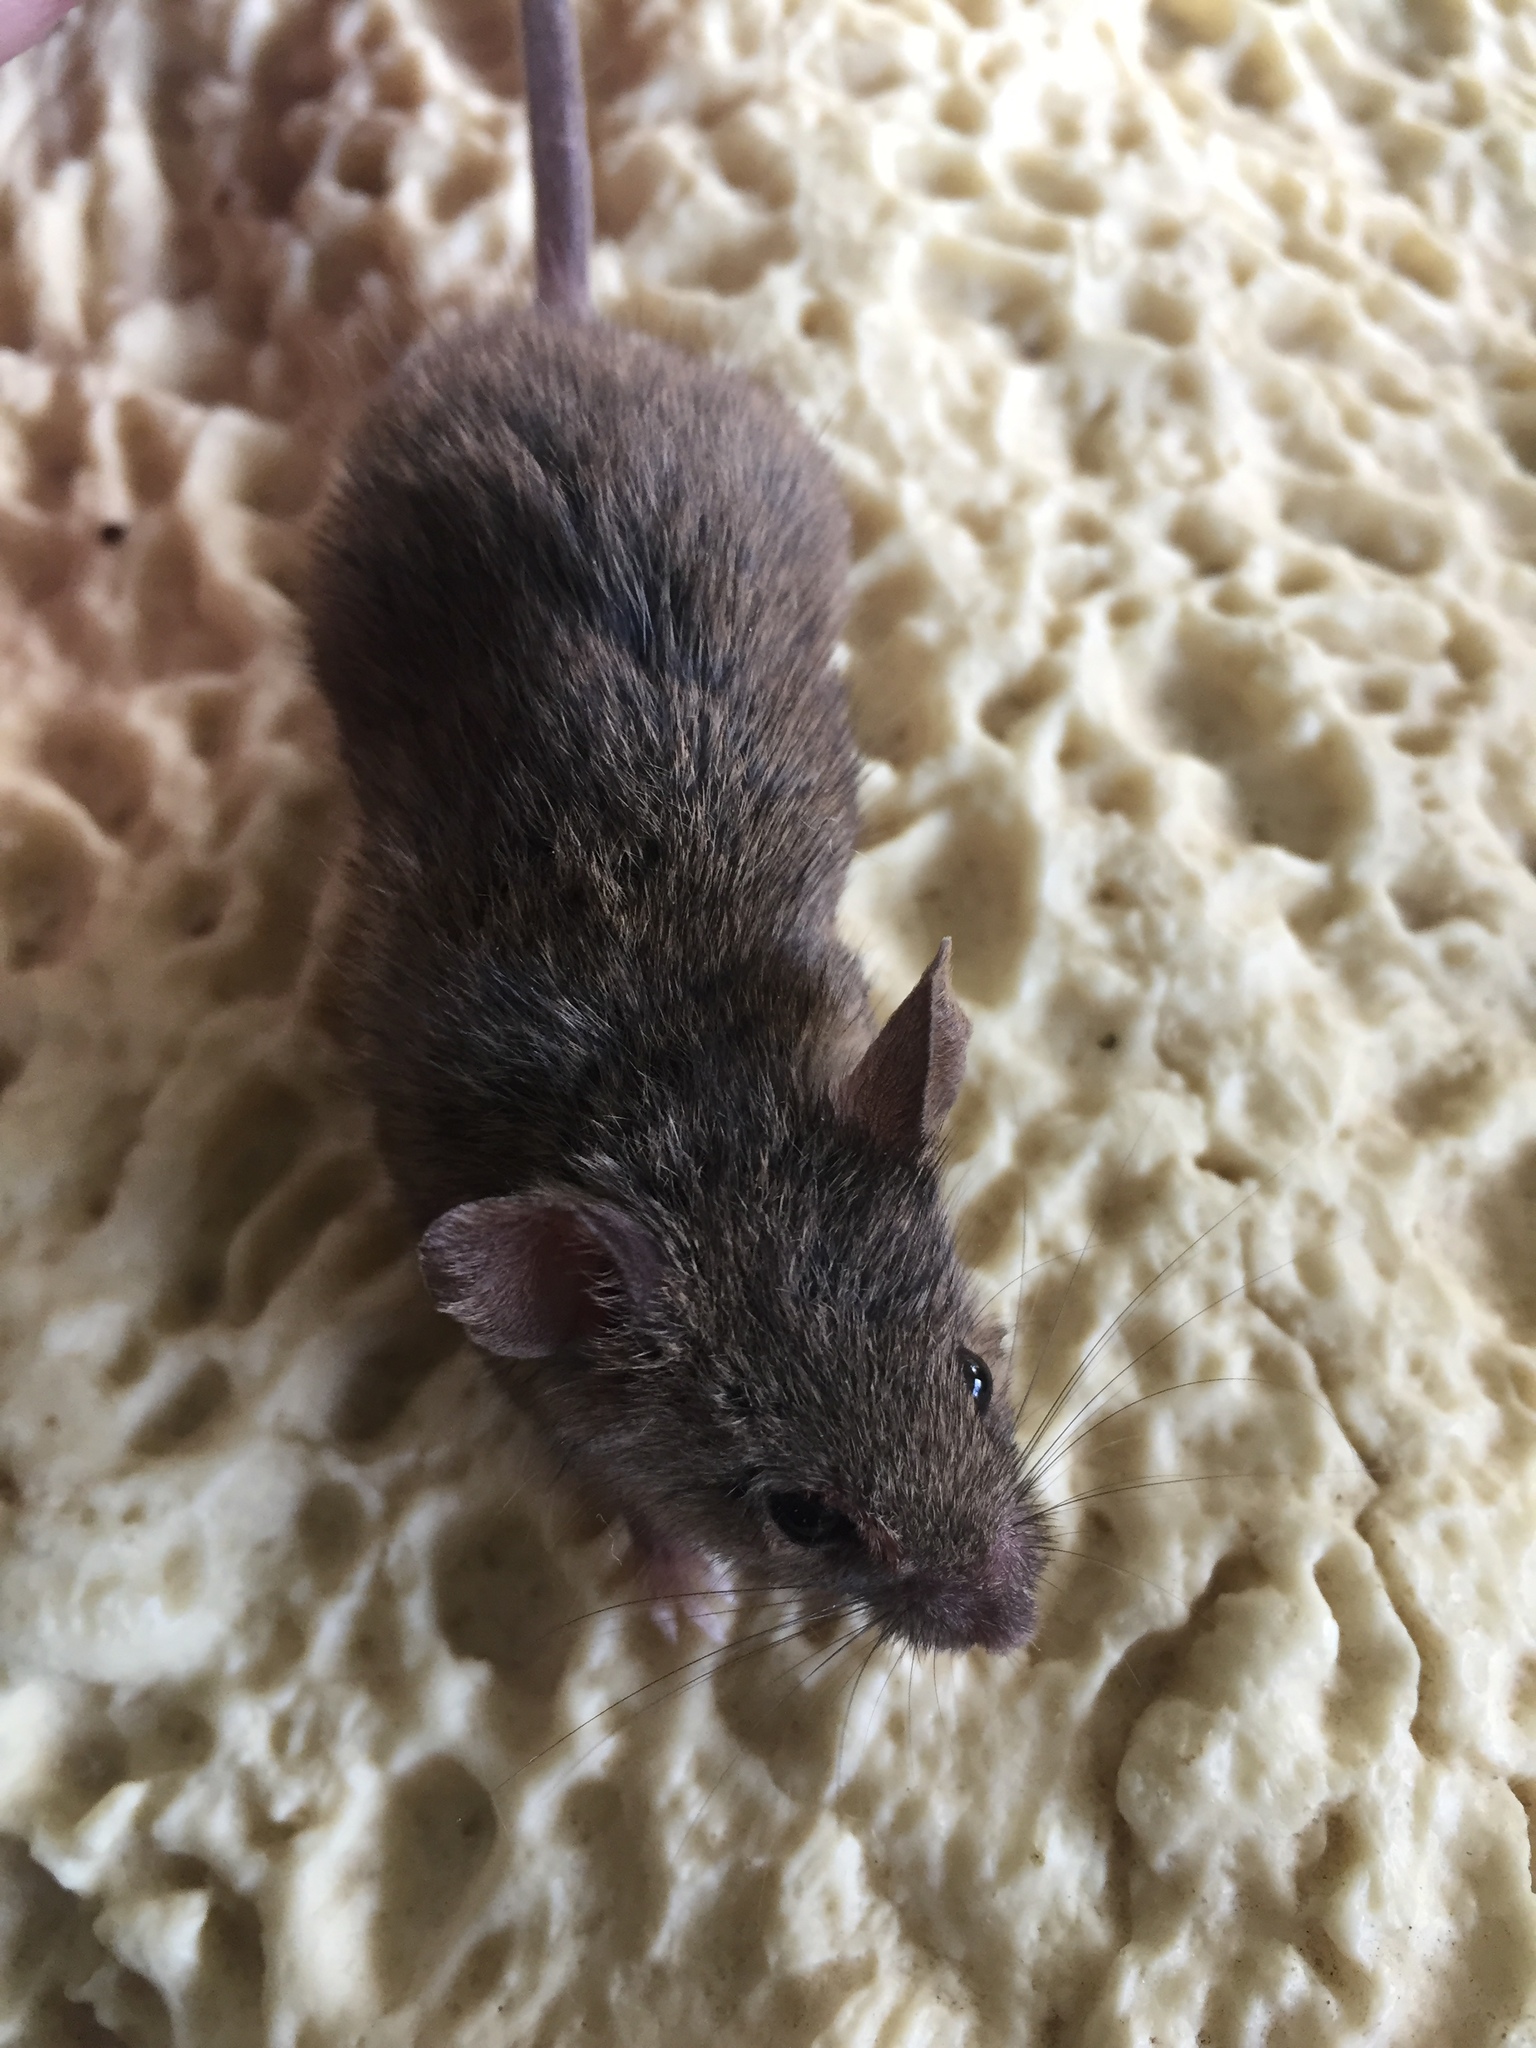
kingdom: Animalia
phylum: Chordata
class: Mammalia
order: Rodentia
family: Muridae
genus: Mus
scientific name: Mus musculus
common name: House mouse
